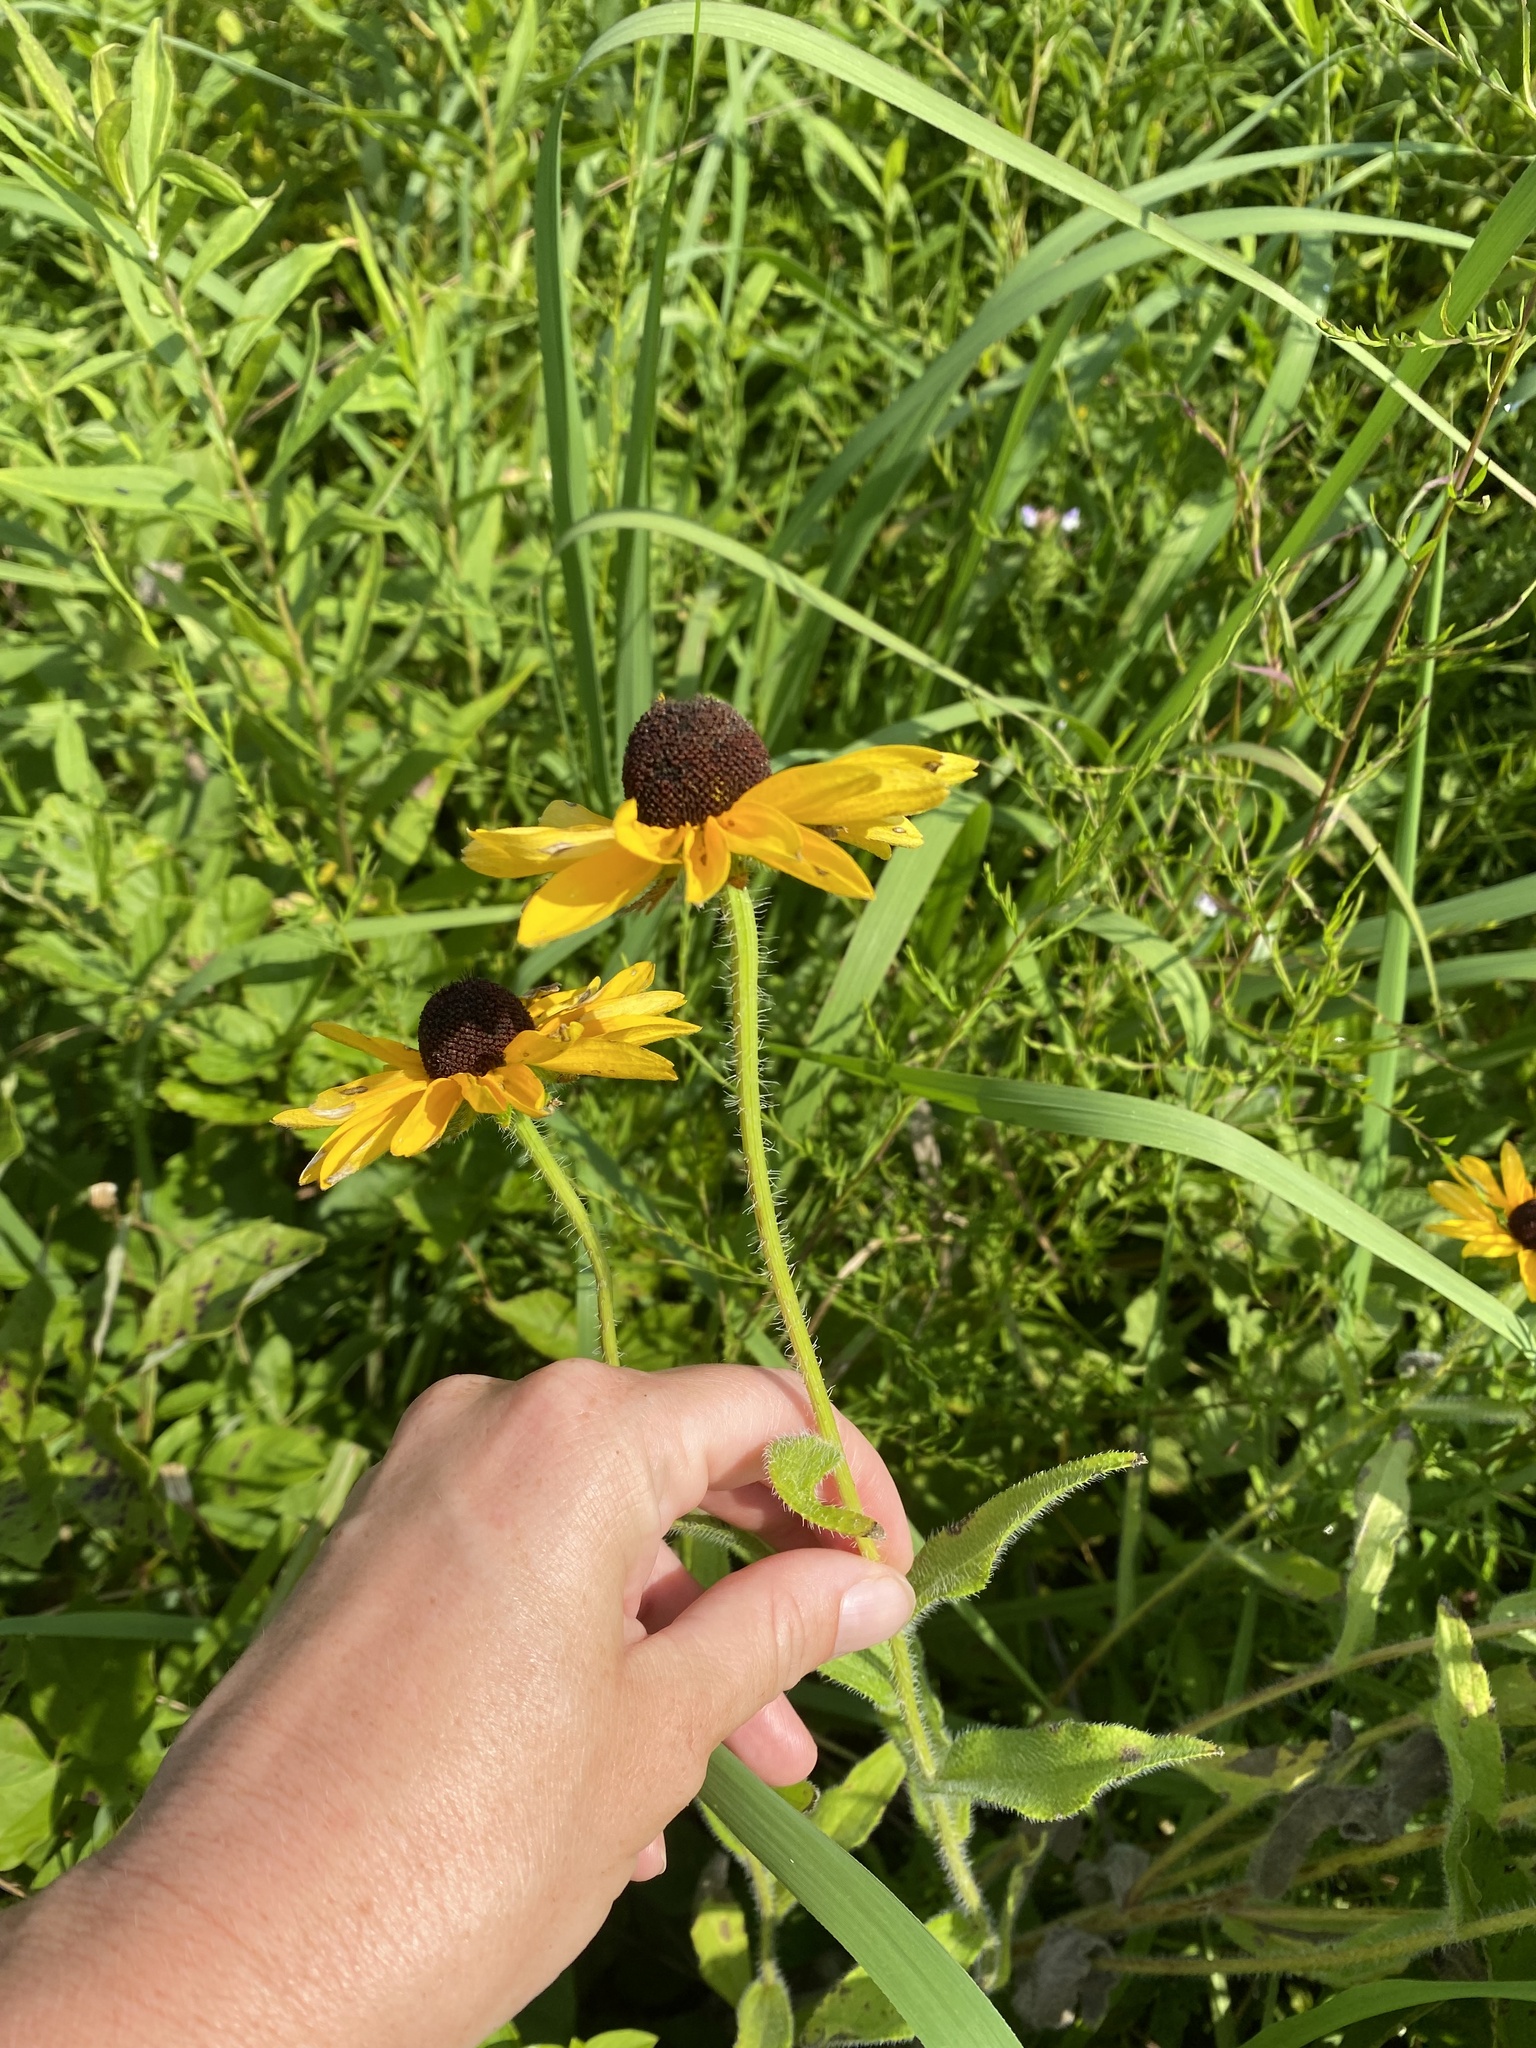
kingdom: Plantae
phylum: Tracheophyta
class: Magnoliopsida
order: Asterales
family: Asteraceae
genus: Rudbeckia
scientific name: Rudbeckia hirta
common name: Black-eyed-susan
